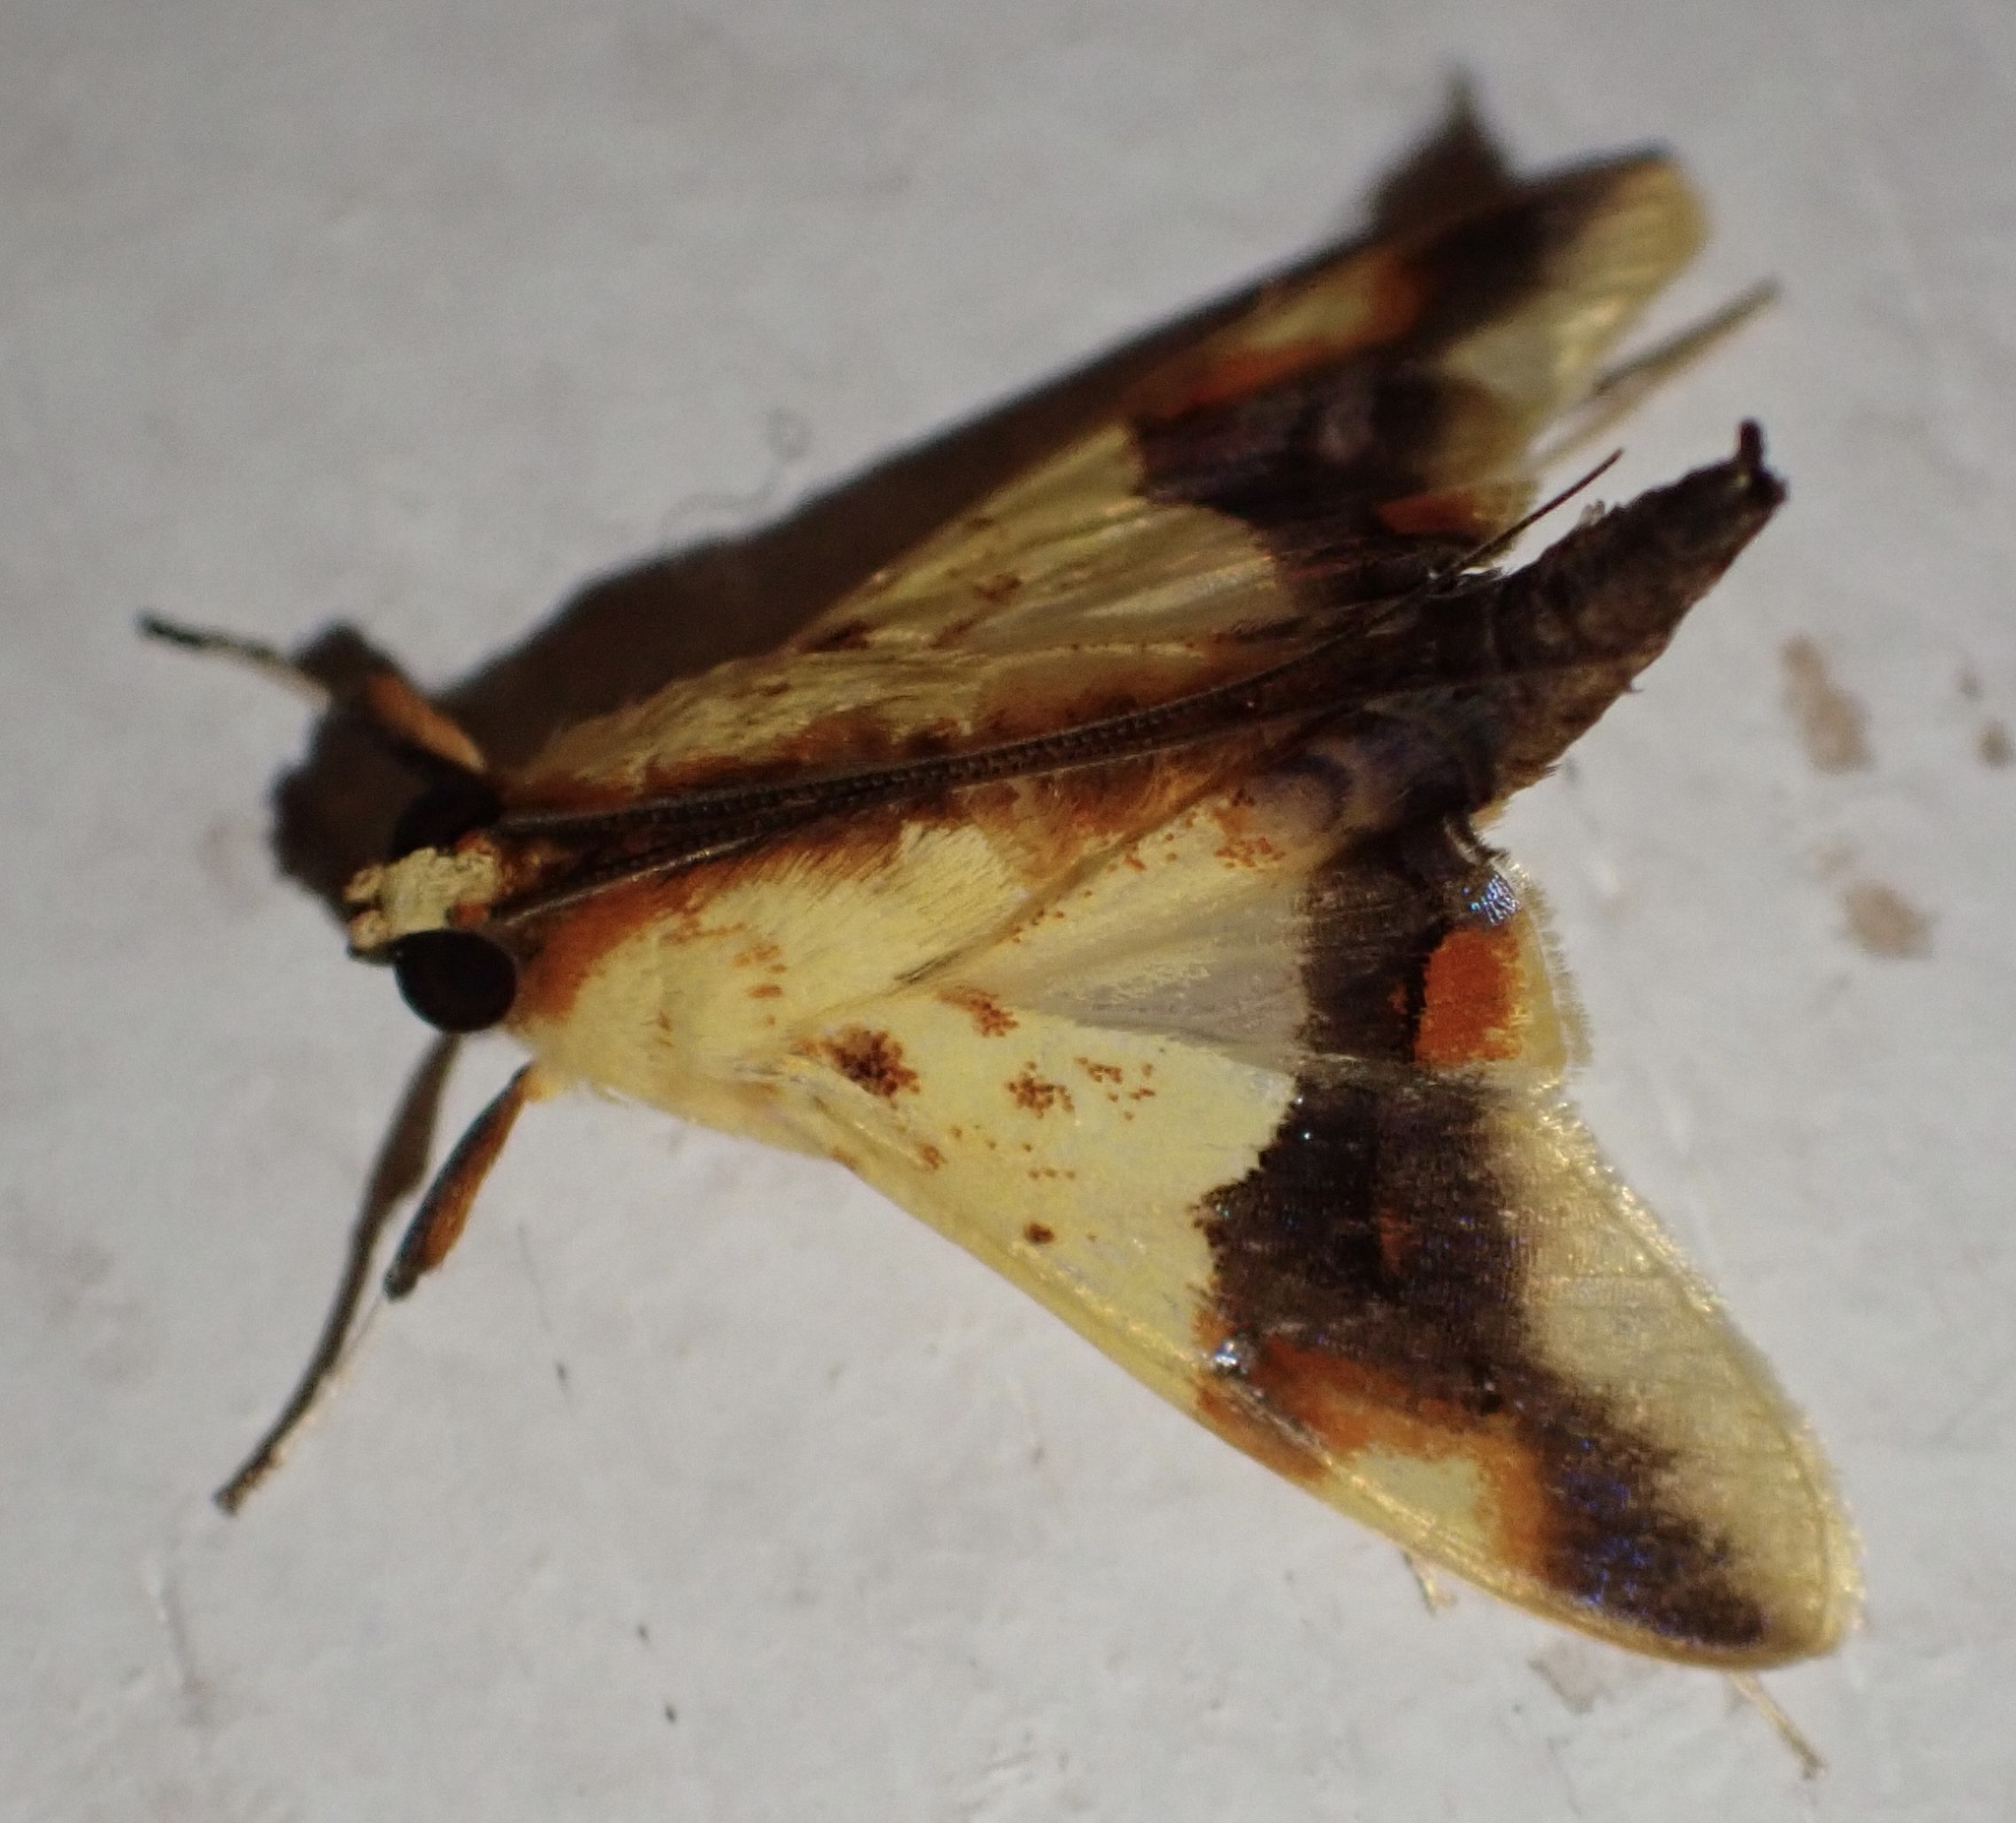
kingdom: Animalia
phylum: Arthropoda
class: Insecta
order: Lepidoptera
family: Crambidae
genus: Agrotera
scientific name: Agrotera pictalis
